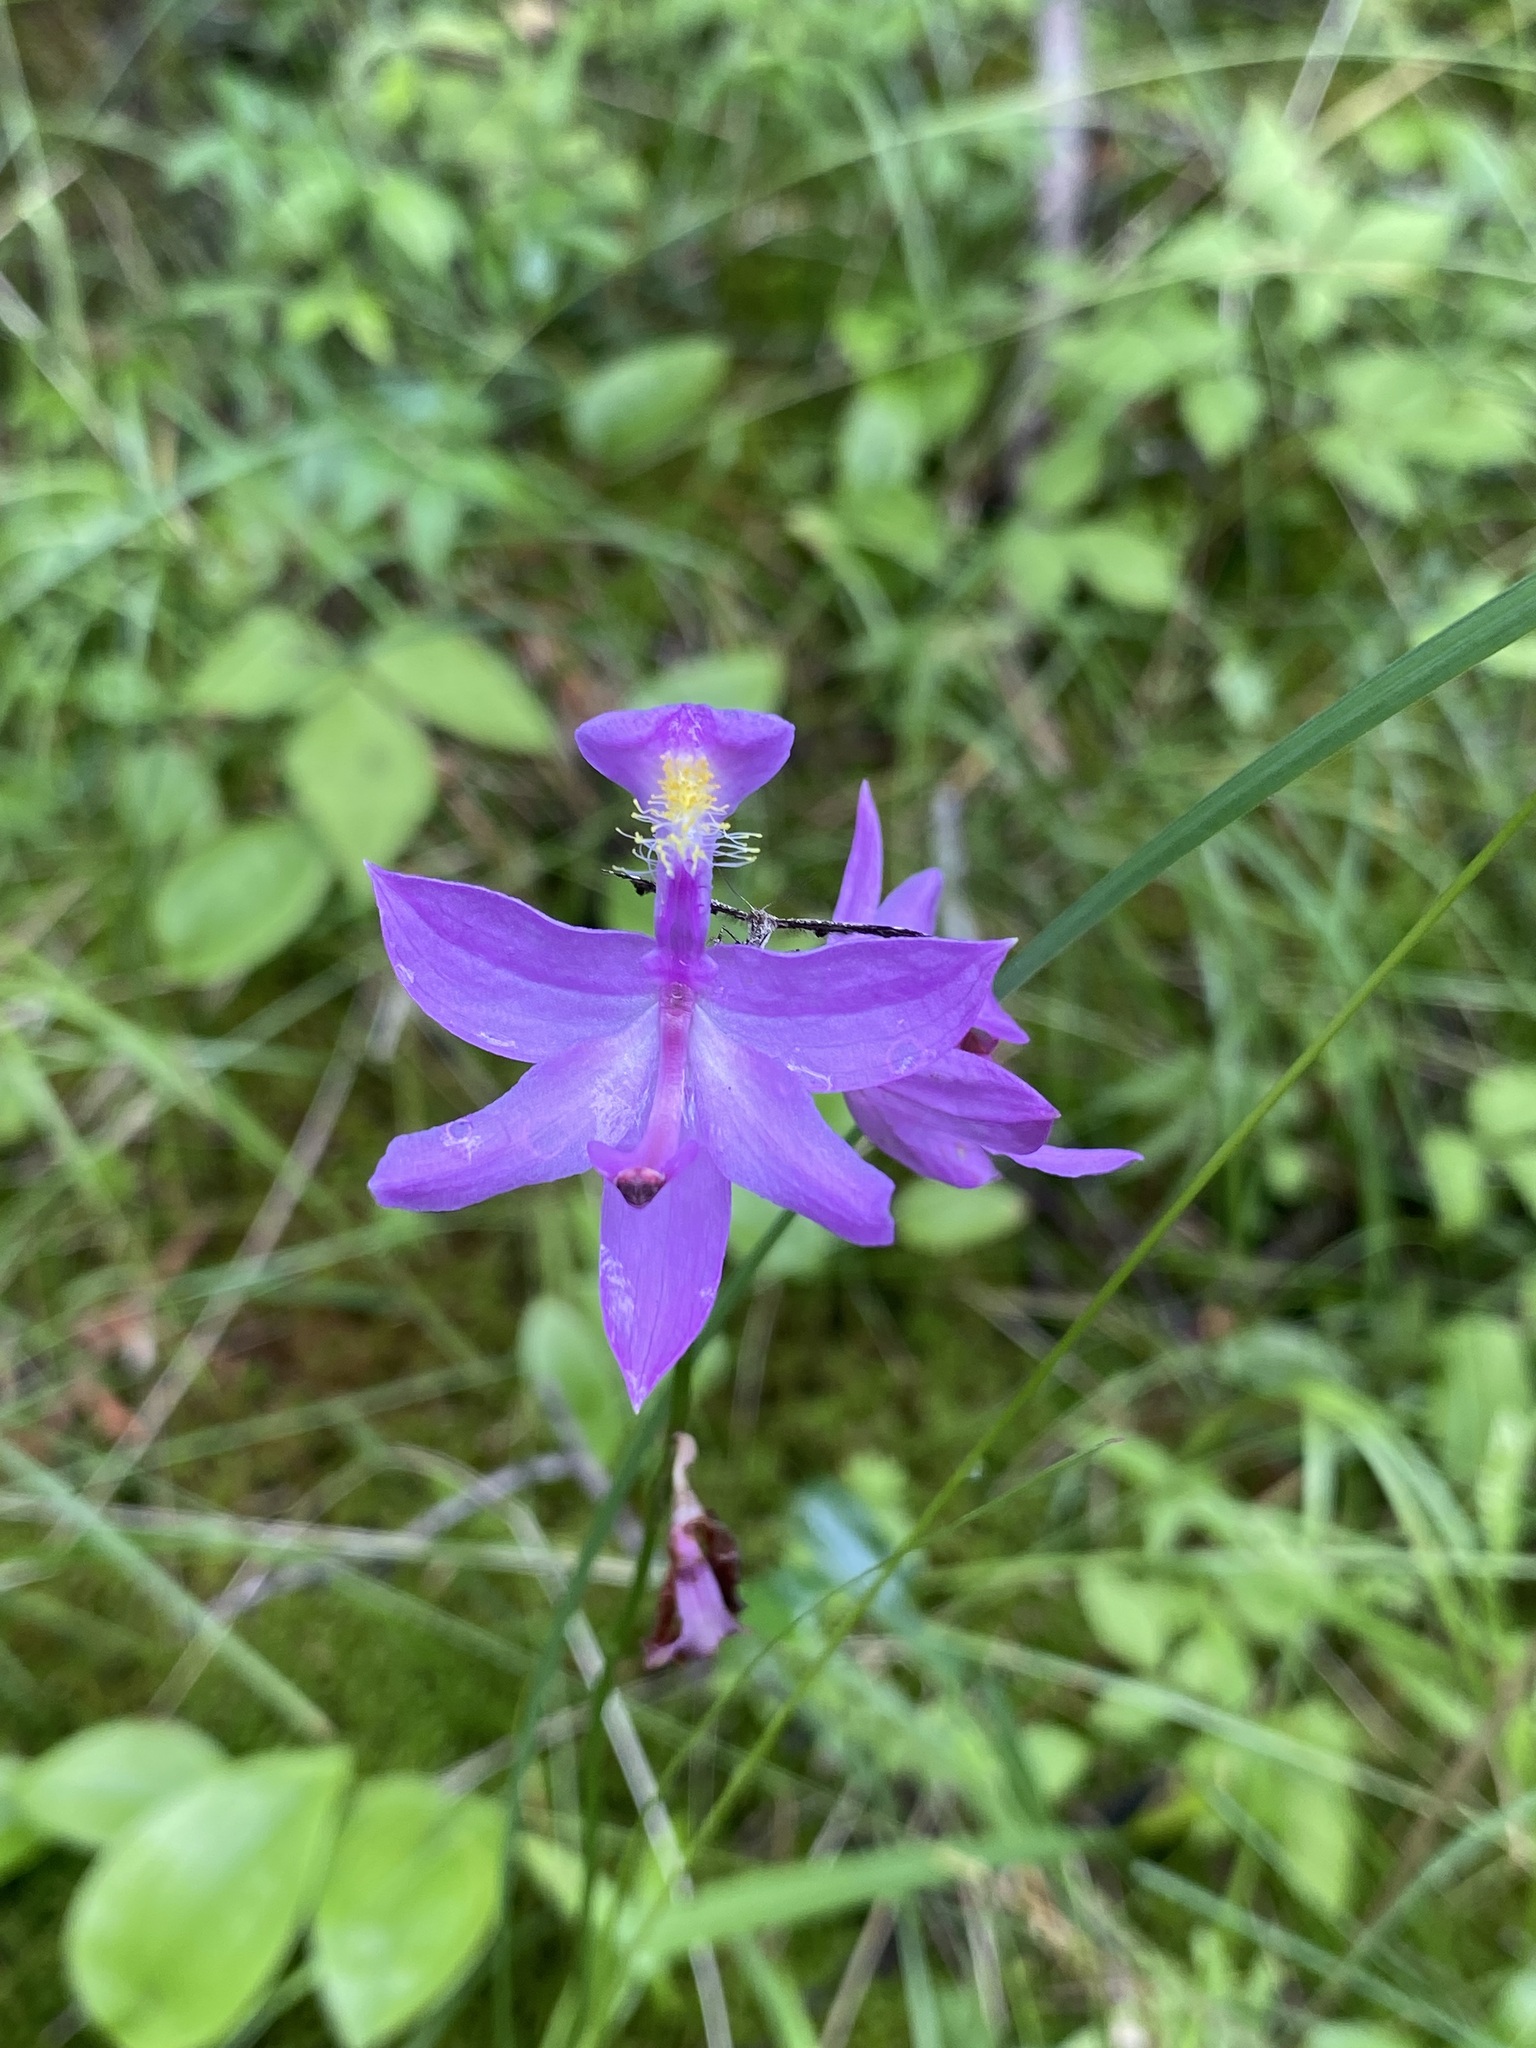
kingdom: Plantae
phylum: Tracheophyta
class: Liliopsida
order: Asparagales
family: Orchidaceae
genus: Calopogon
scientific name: Calopogon tuberosus
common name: Grass-pink
